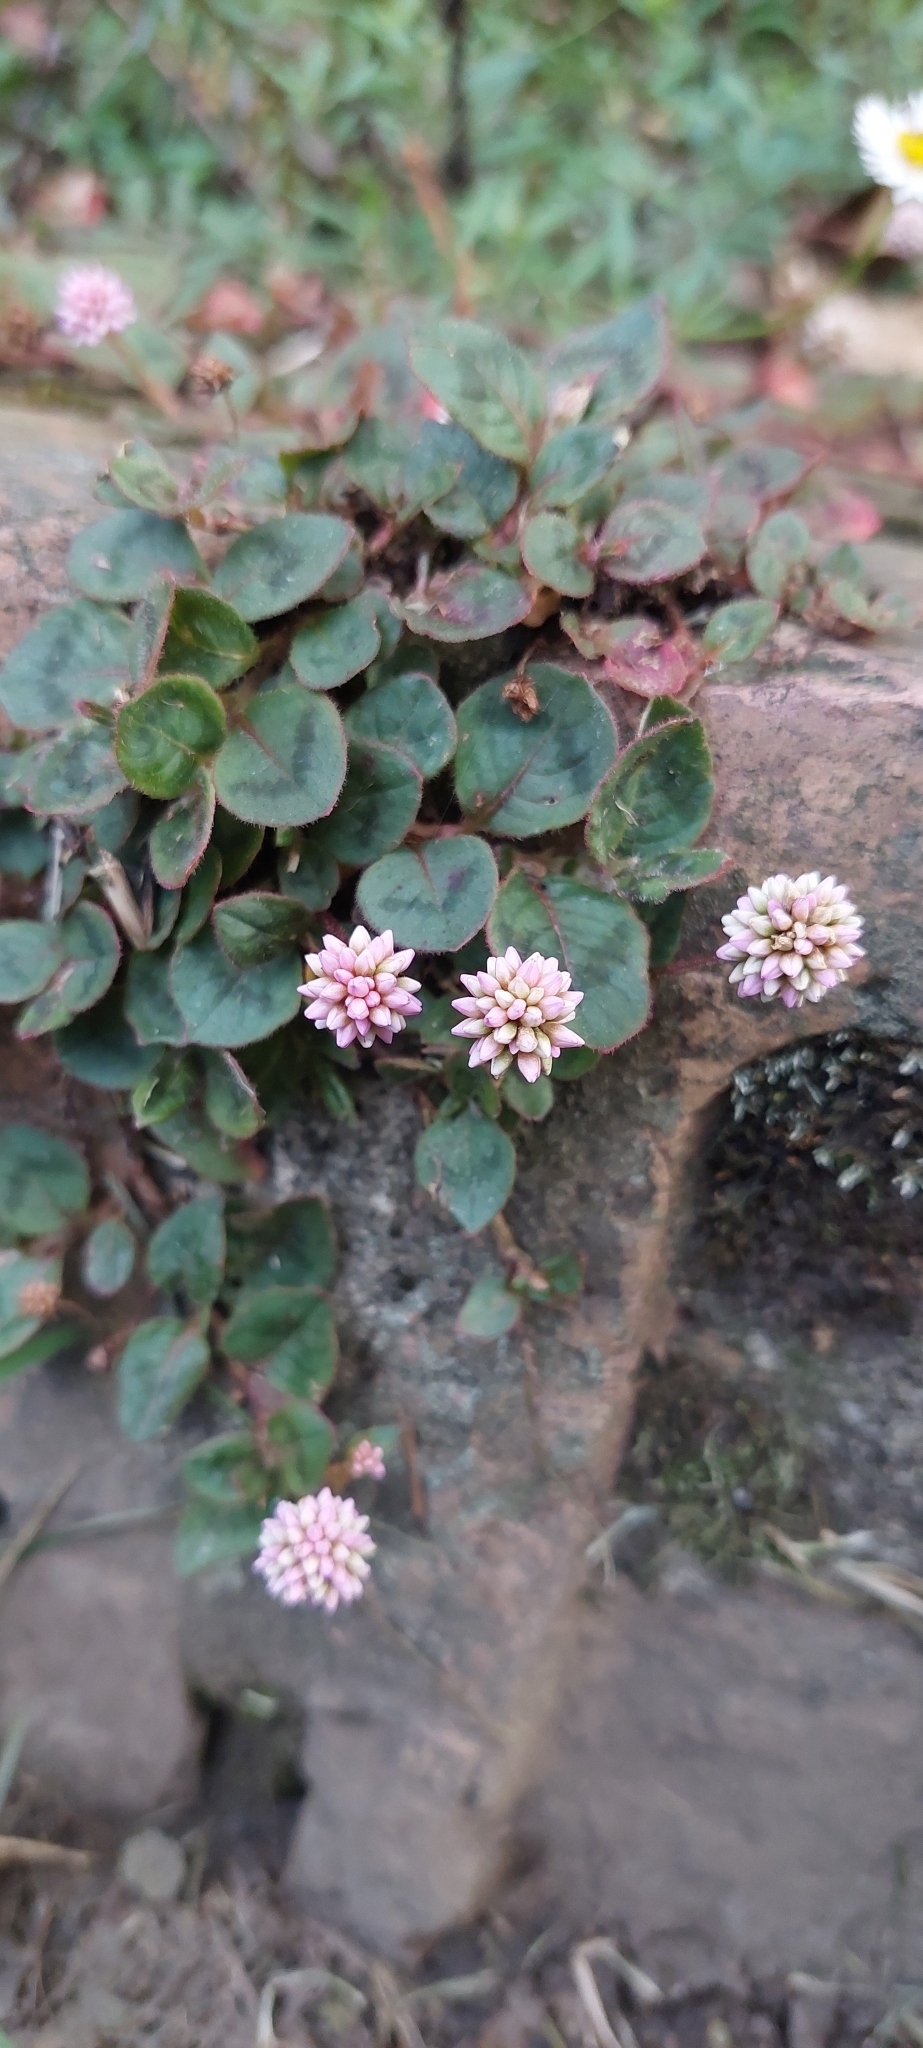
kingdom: Plantae
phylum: Tracheophyta
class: Magnoliopsida
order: Caryophyllales
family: Polygonaceae
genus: Persicaria
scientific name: Persicaria capitata
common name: Pinkhead smartweed
